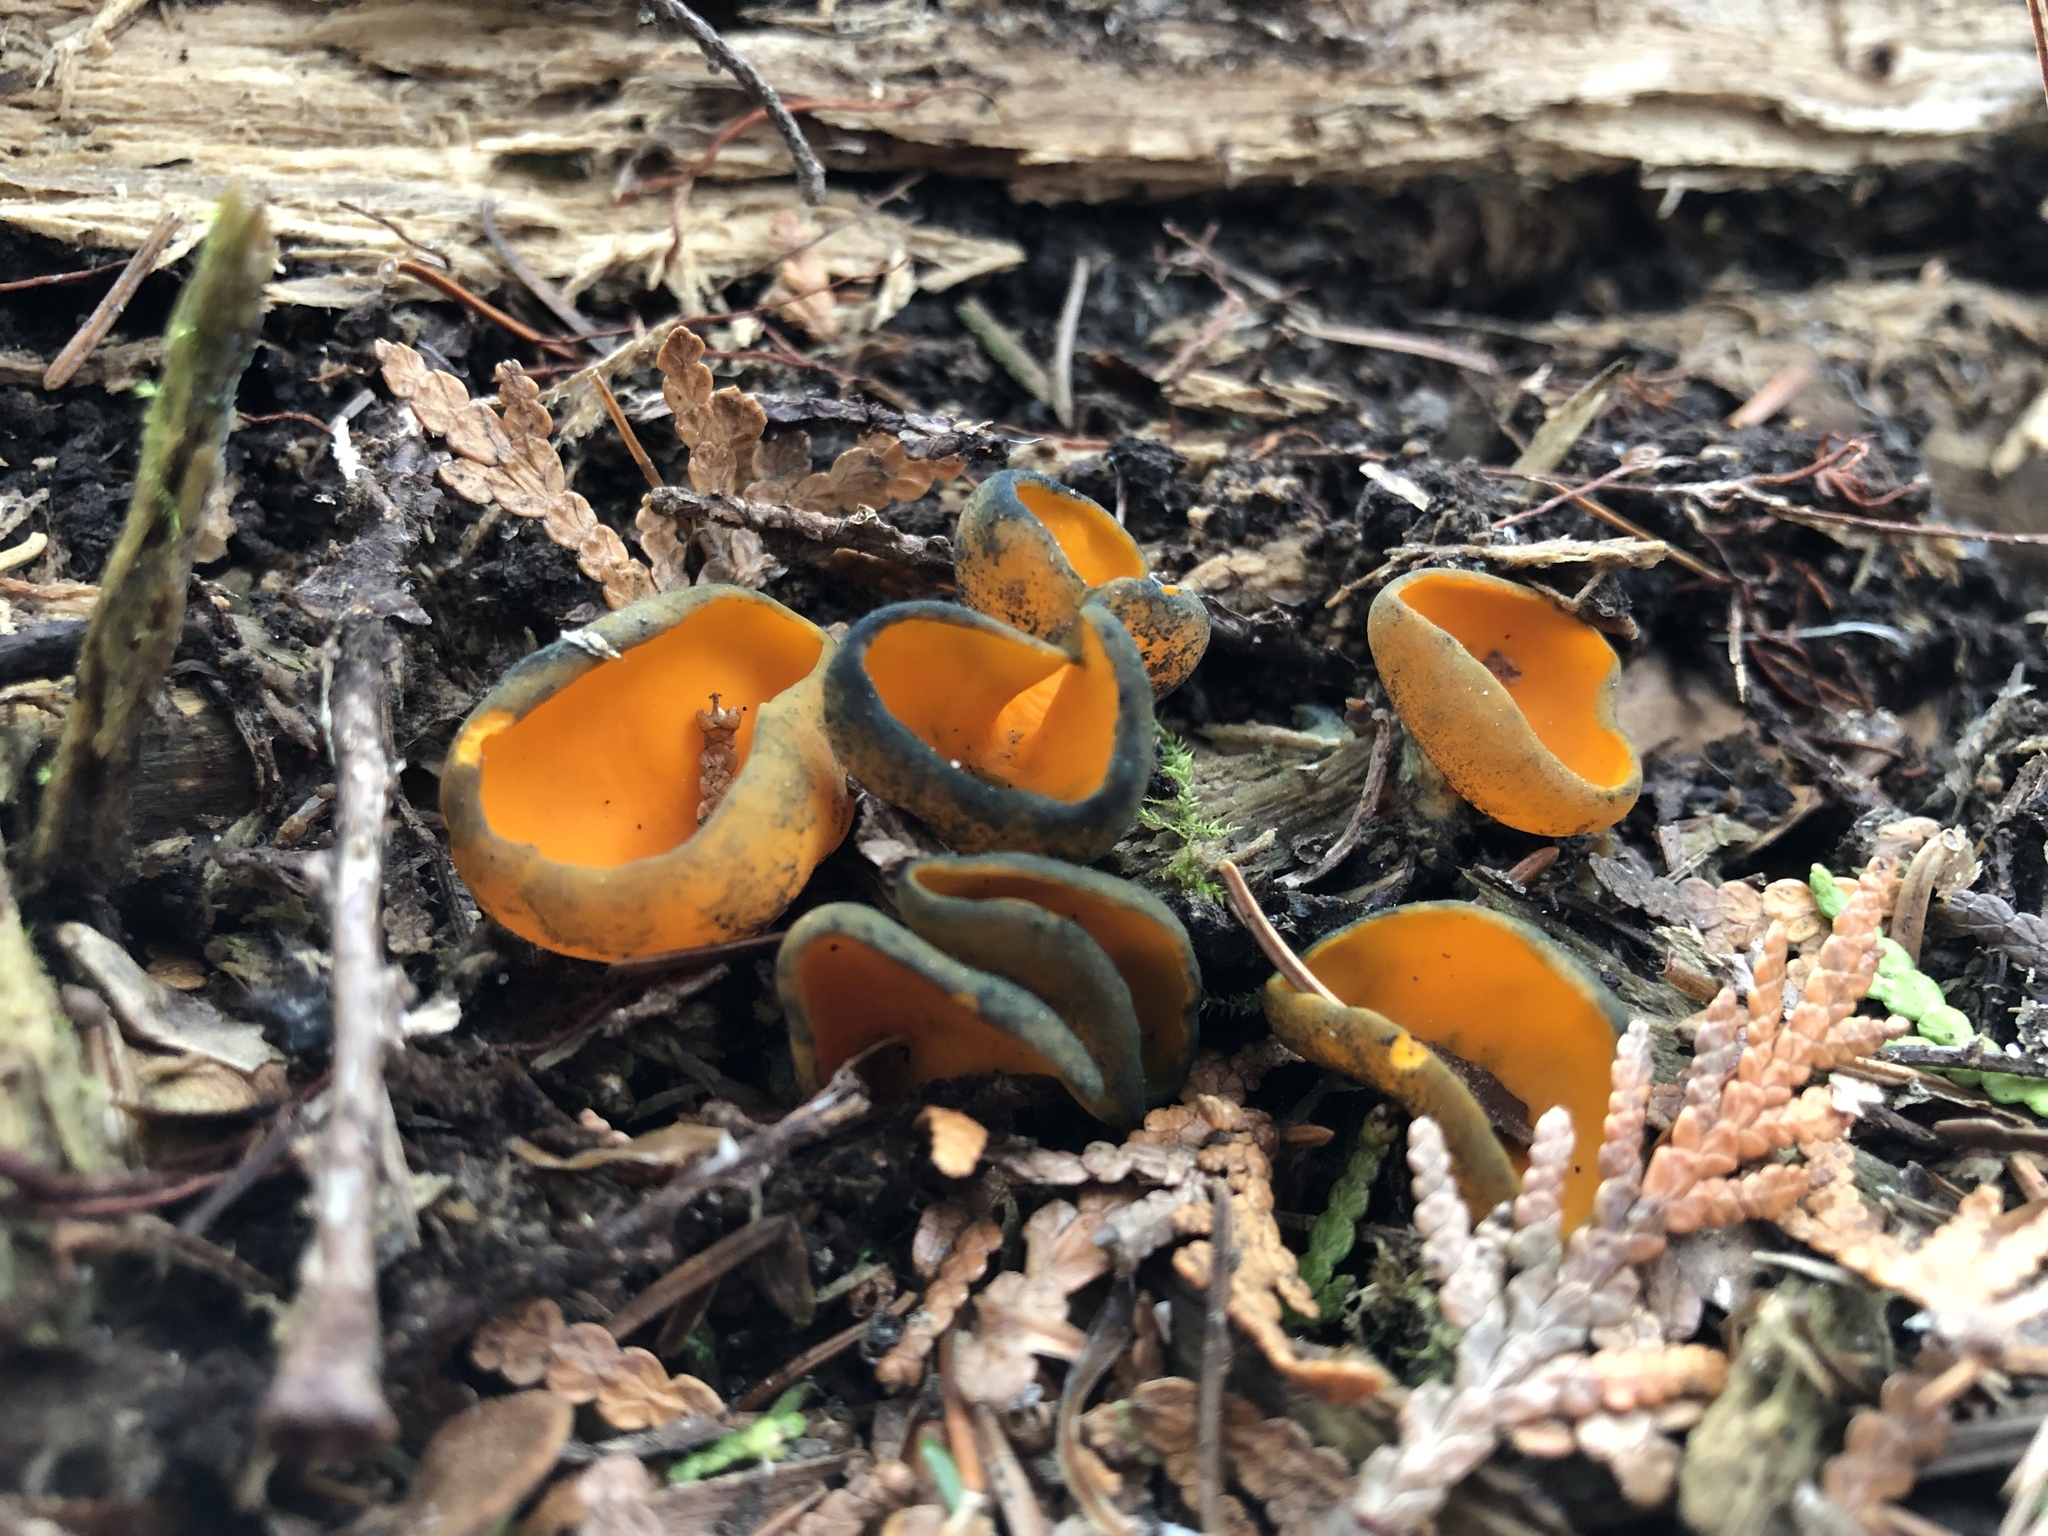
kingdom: Fungi
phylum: Ascomycota
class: Pezizomycetes
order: Pezizales
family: Caloscyphaceae
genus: Caloscypha
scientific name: Caloscypha fulgens
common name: Golden cup
